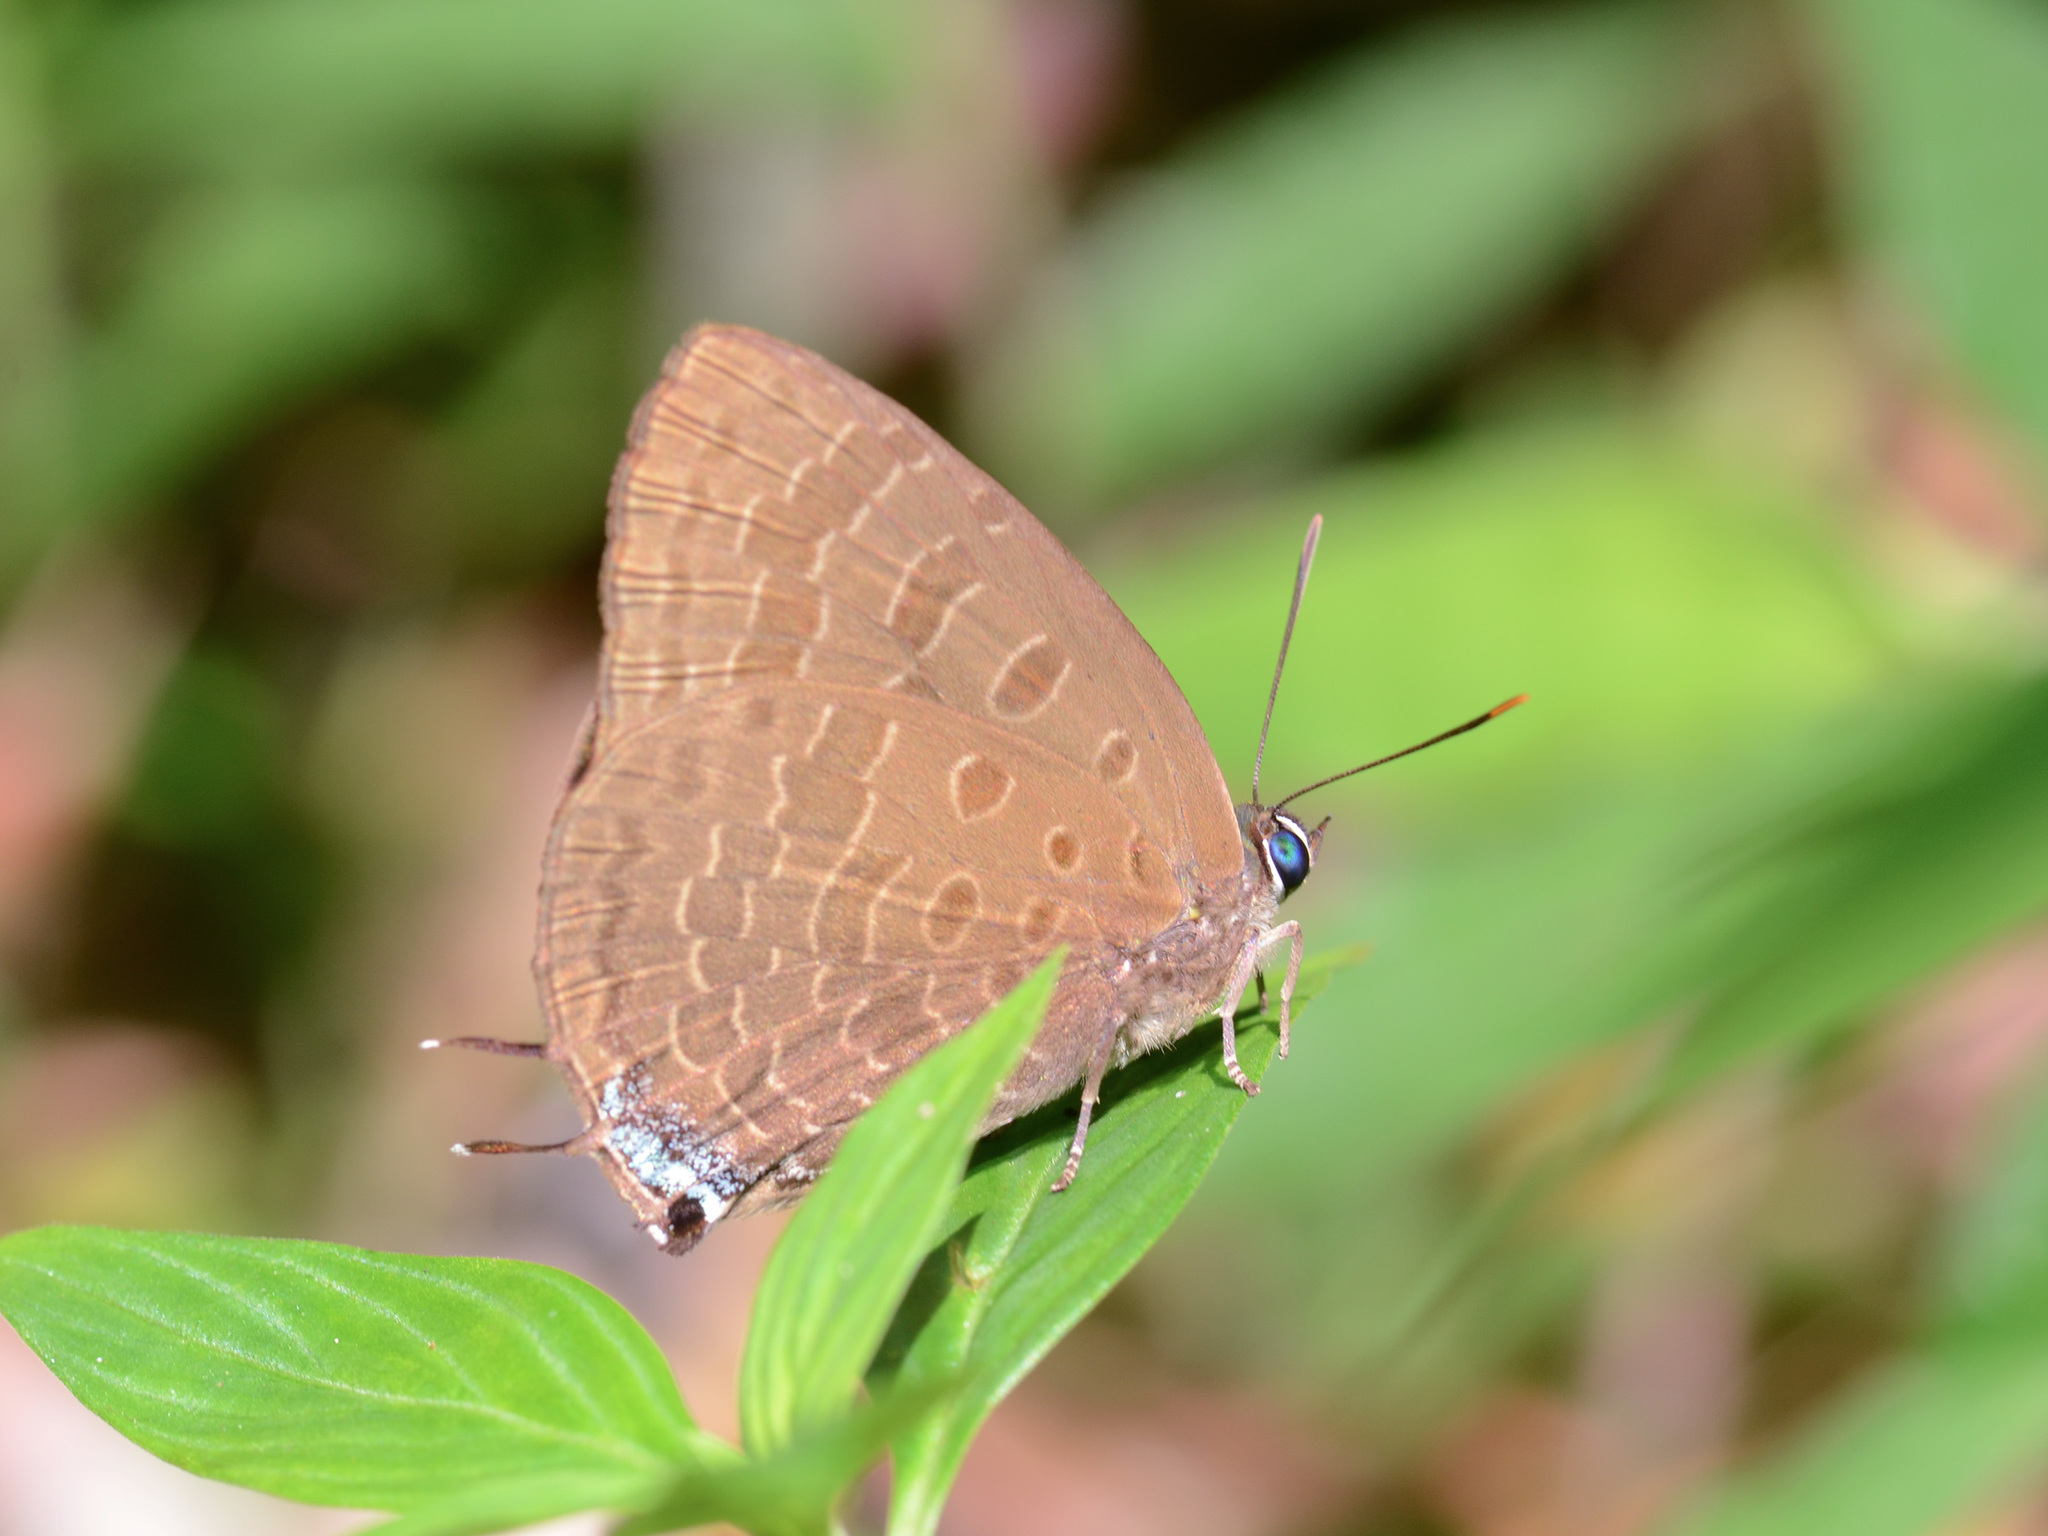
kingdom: Animalia
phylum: Arthropoda
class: Insecta
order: Lepidoptera
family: Lycaenidae
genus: Arhopala
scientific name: Arhopala overdijkinki
